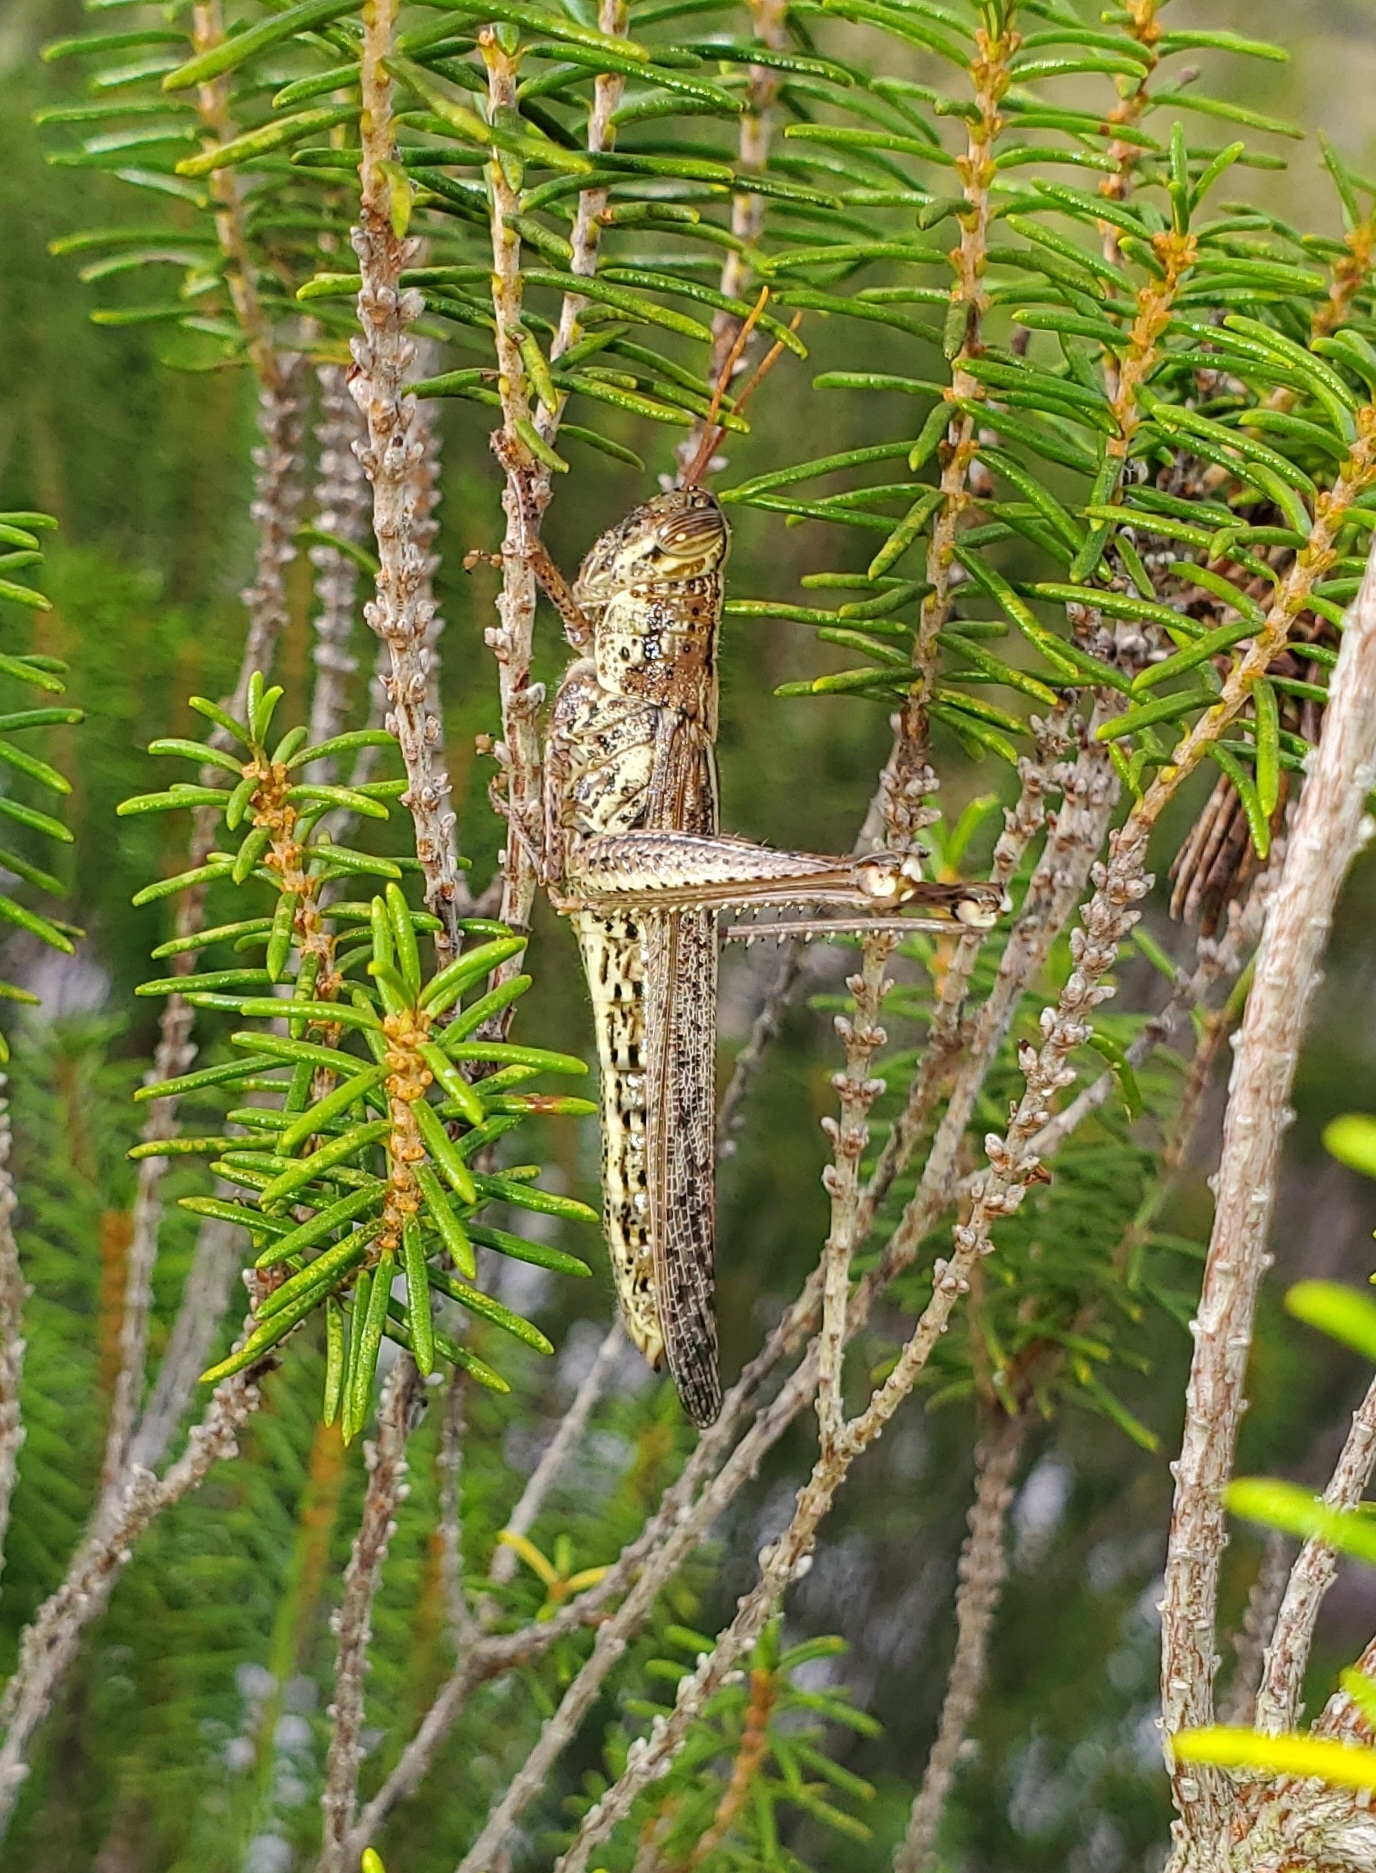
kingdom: Animalia
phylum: Arthropoda
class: Insecta
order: Orthoptera
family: Acrididae
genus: Schistocerca
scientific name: Schistocerca ceratiola
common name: Rosemary grasshopper
